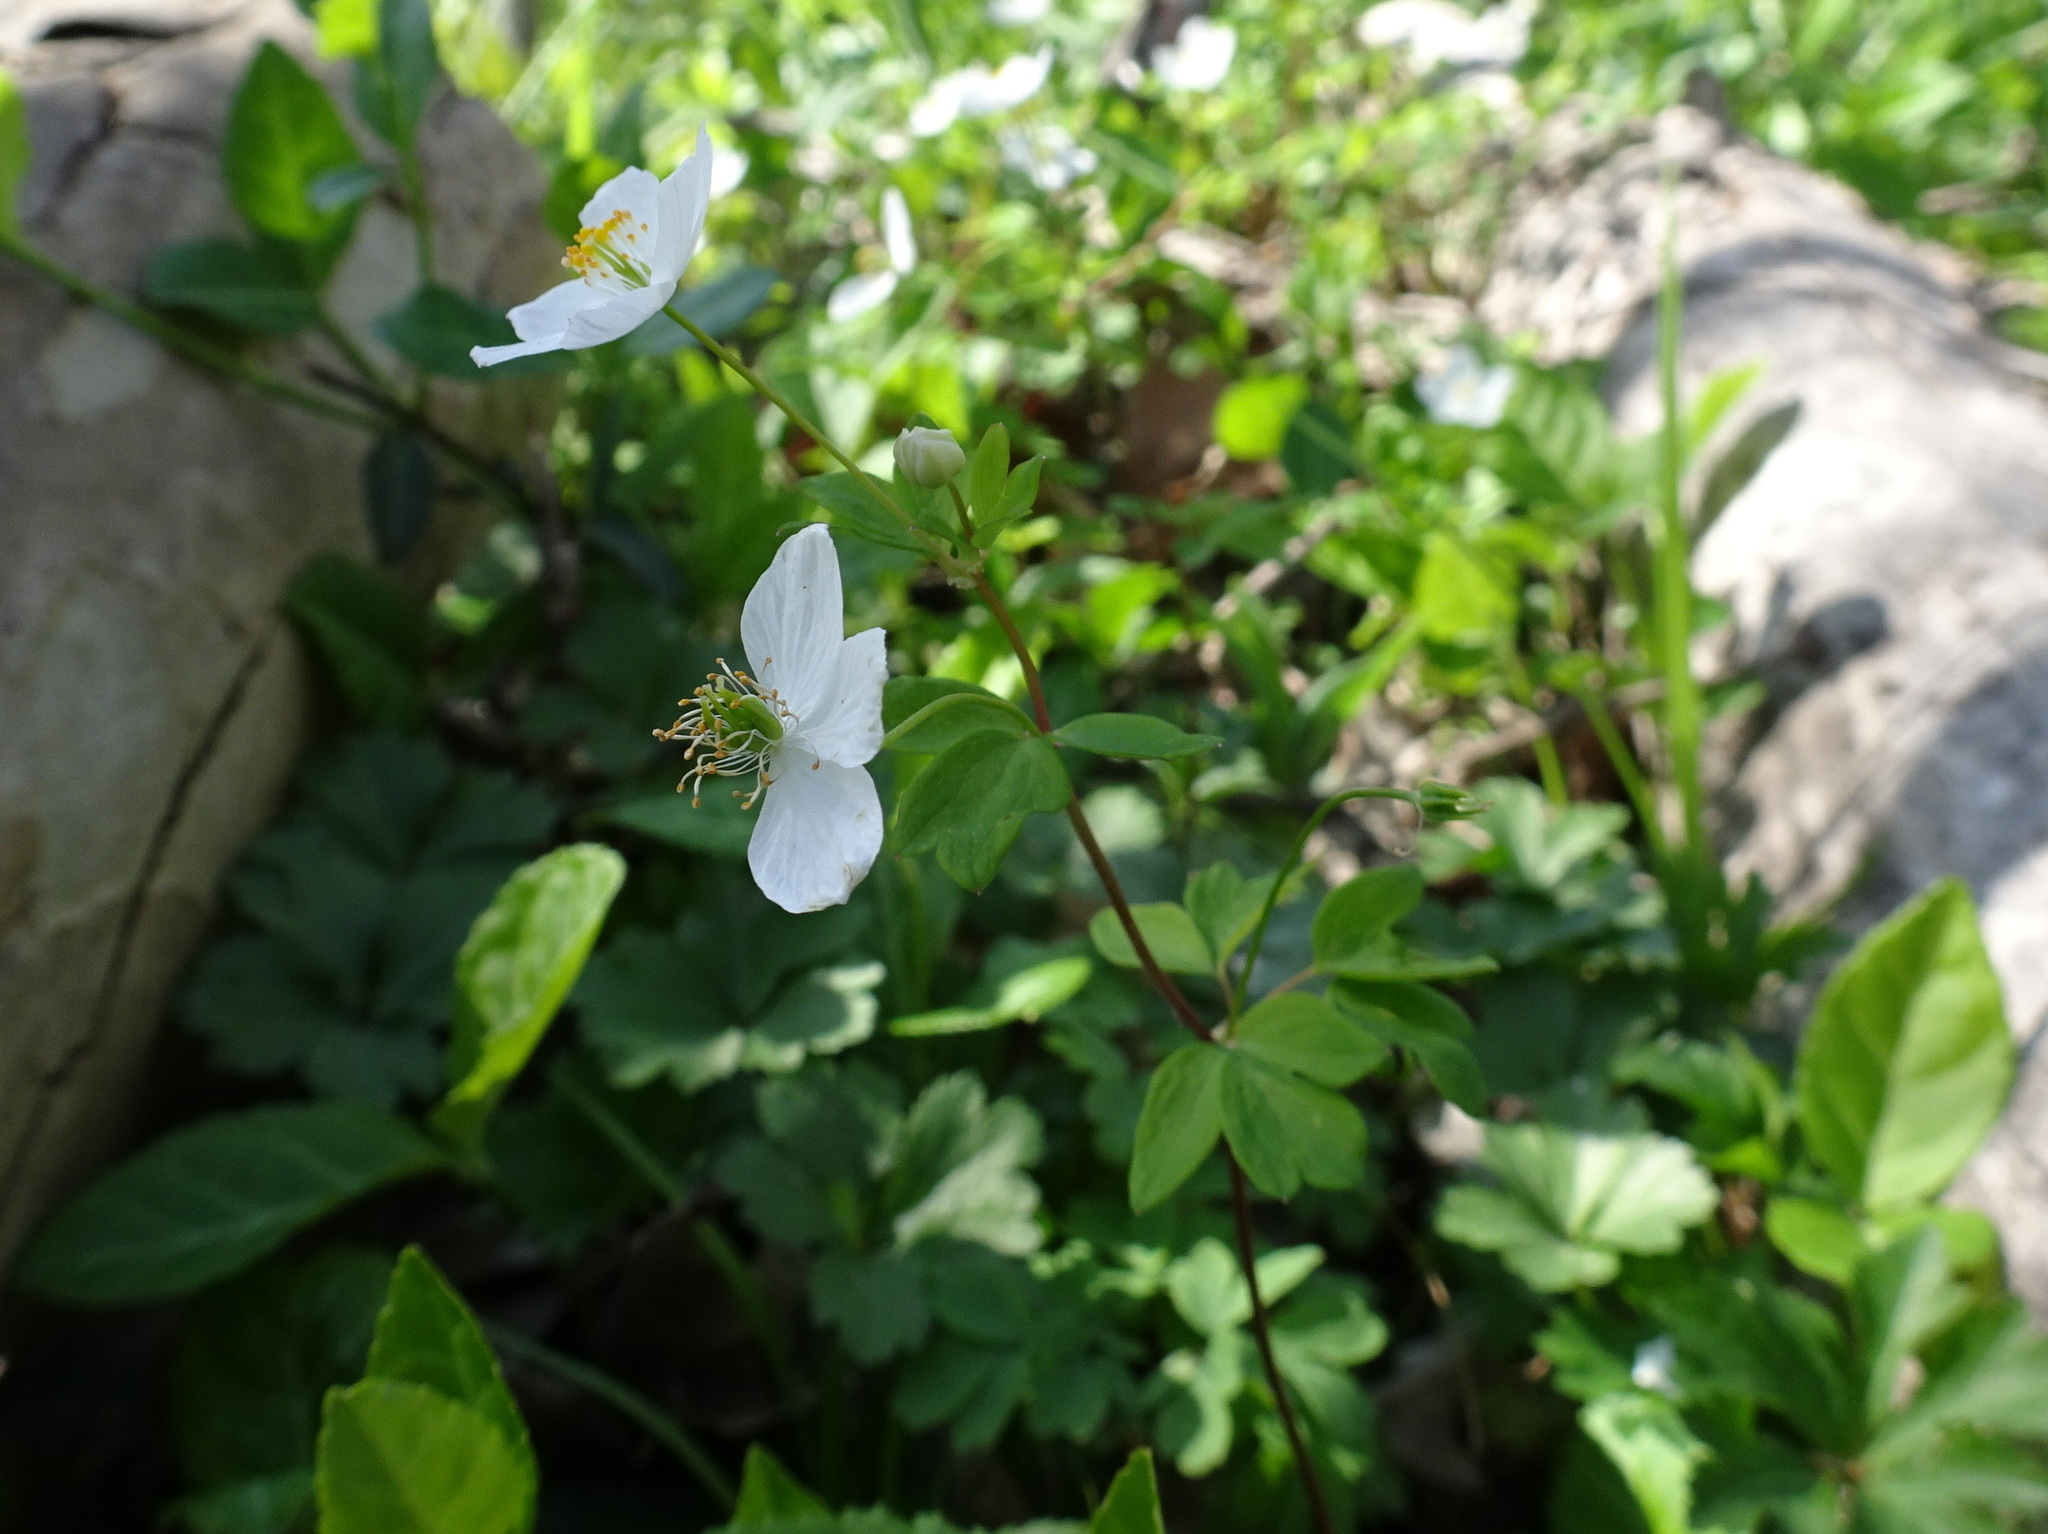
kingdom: Plantae
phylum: Tracheophyta
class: Magnoliopsida
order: Ranunculales
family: Ranunculaceae
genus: Enemion
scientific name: Enemion biternatum
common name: Eastern false rue-anemone
